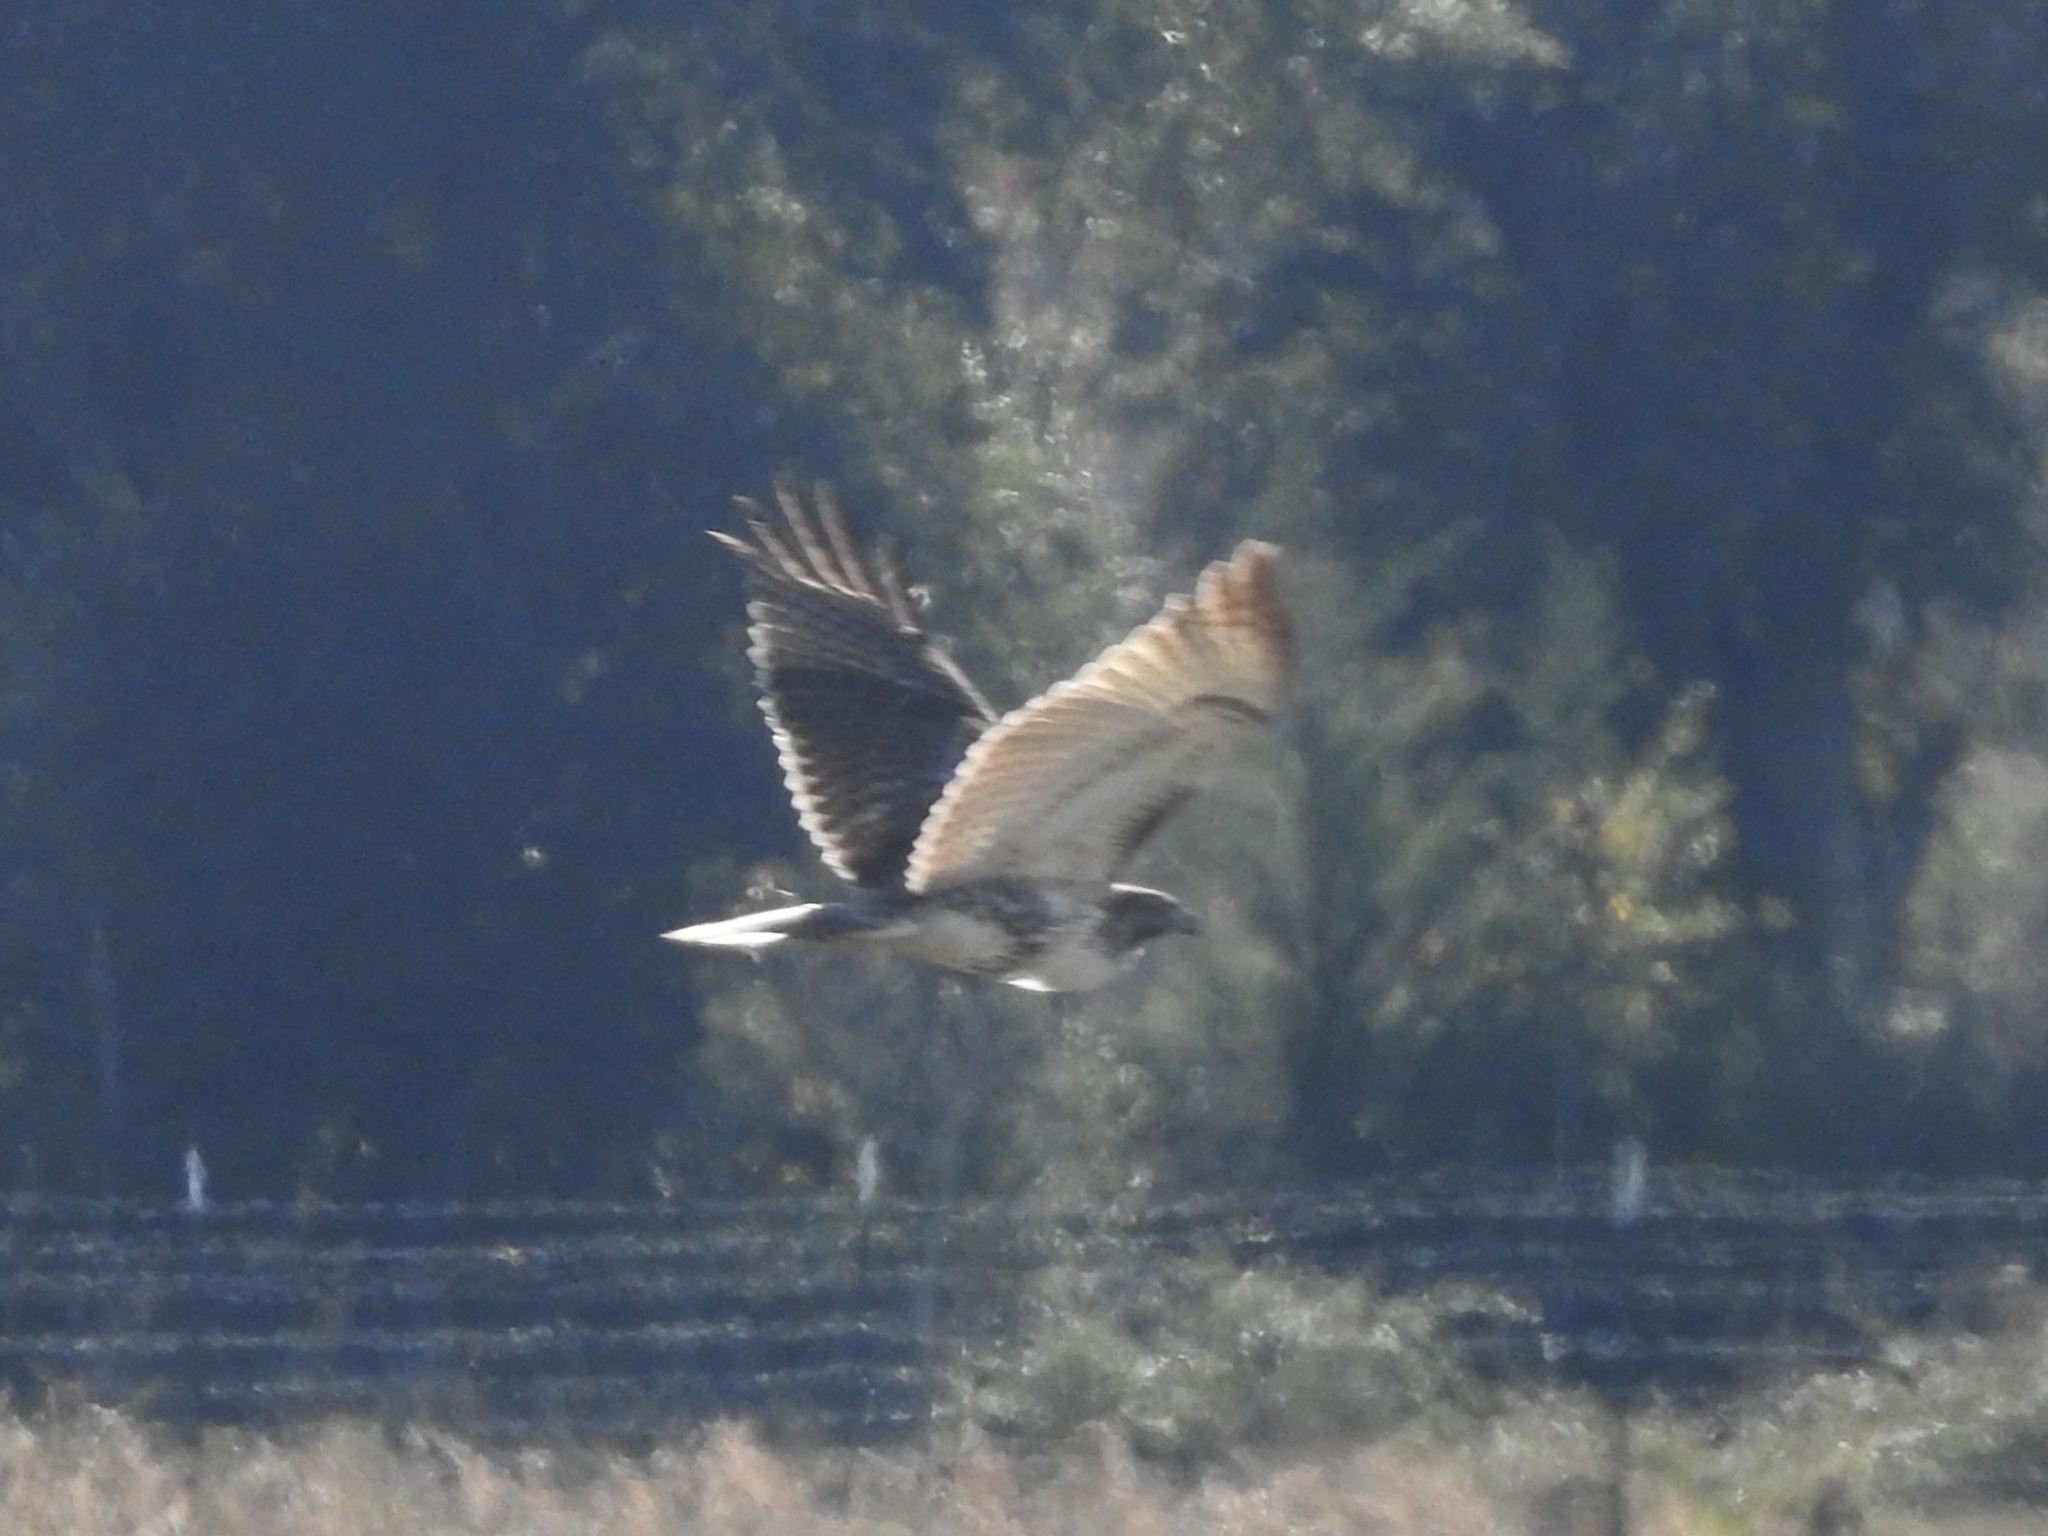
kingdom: Animalia
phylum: Chordata
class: Aves
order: Accipitriformes
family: Accipitridae
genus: Buteo
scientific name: Buteo jamaicensis
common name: Red-tailed hawk
